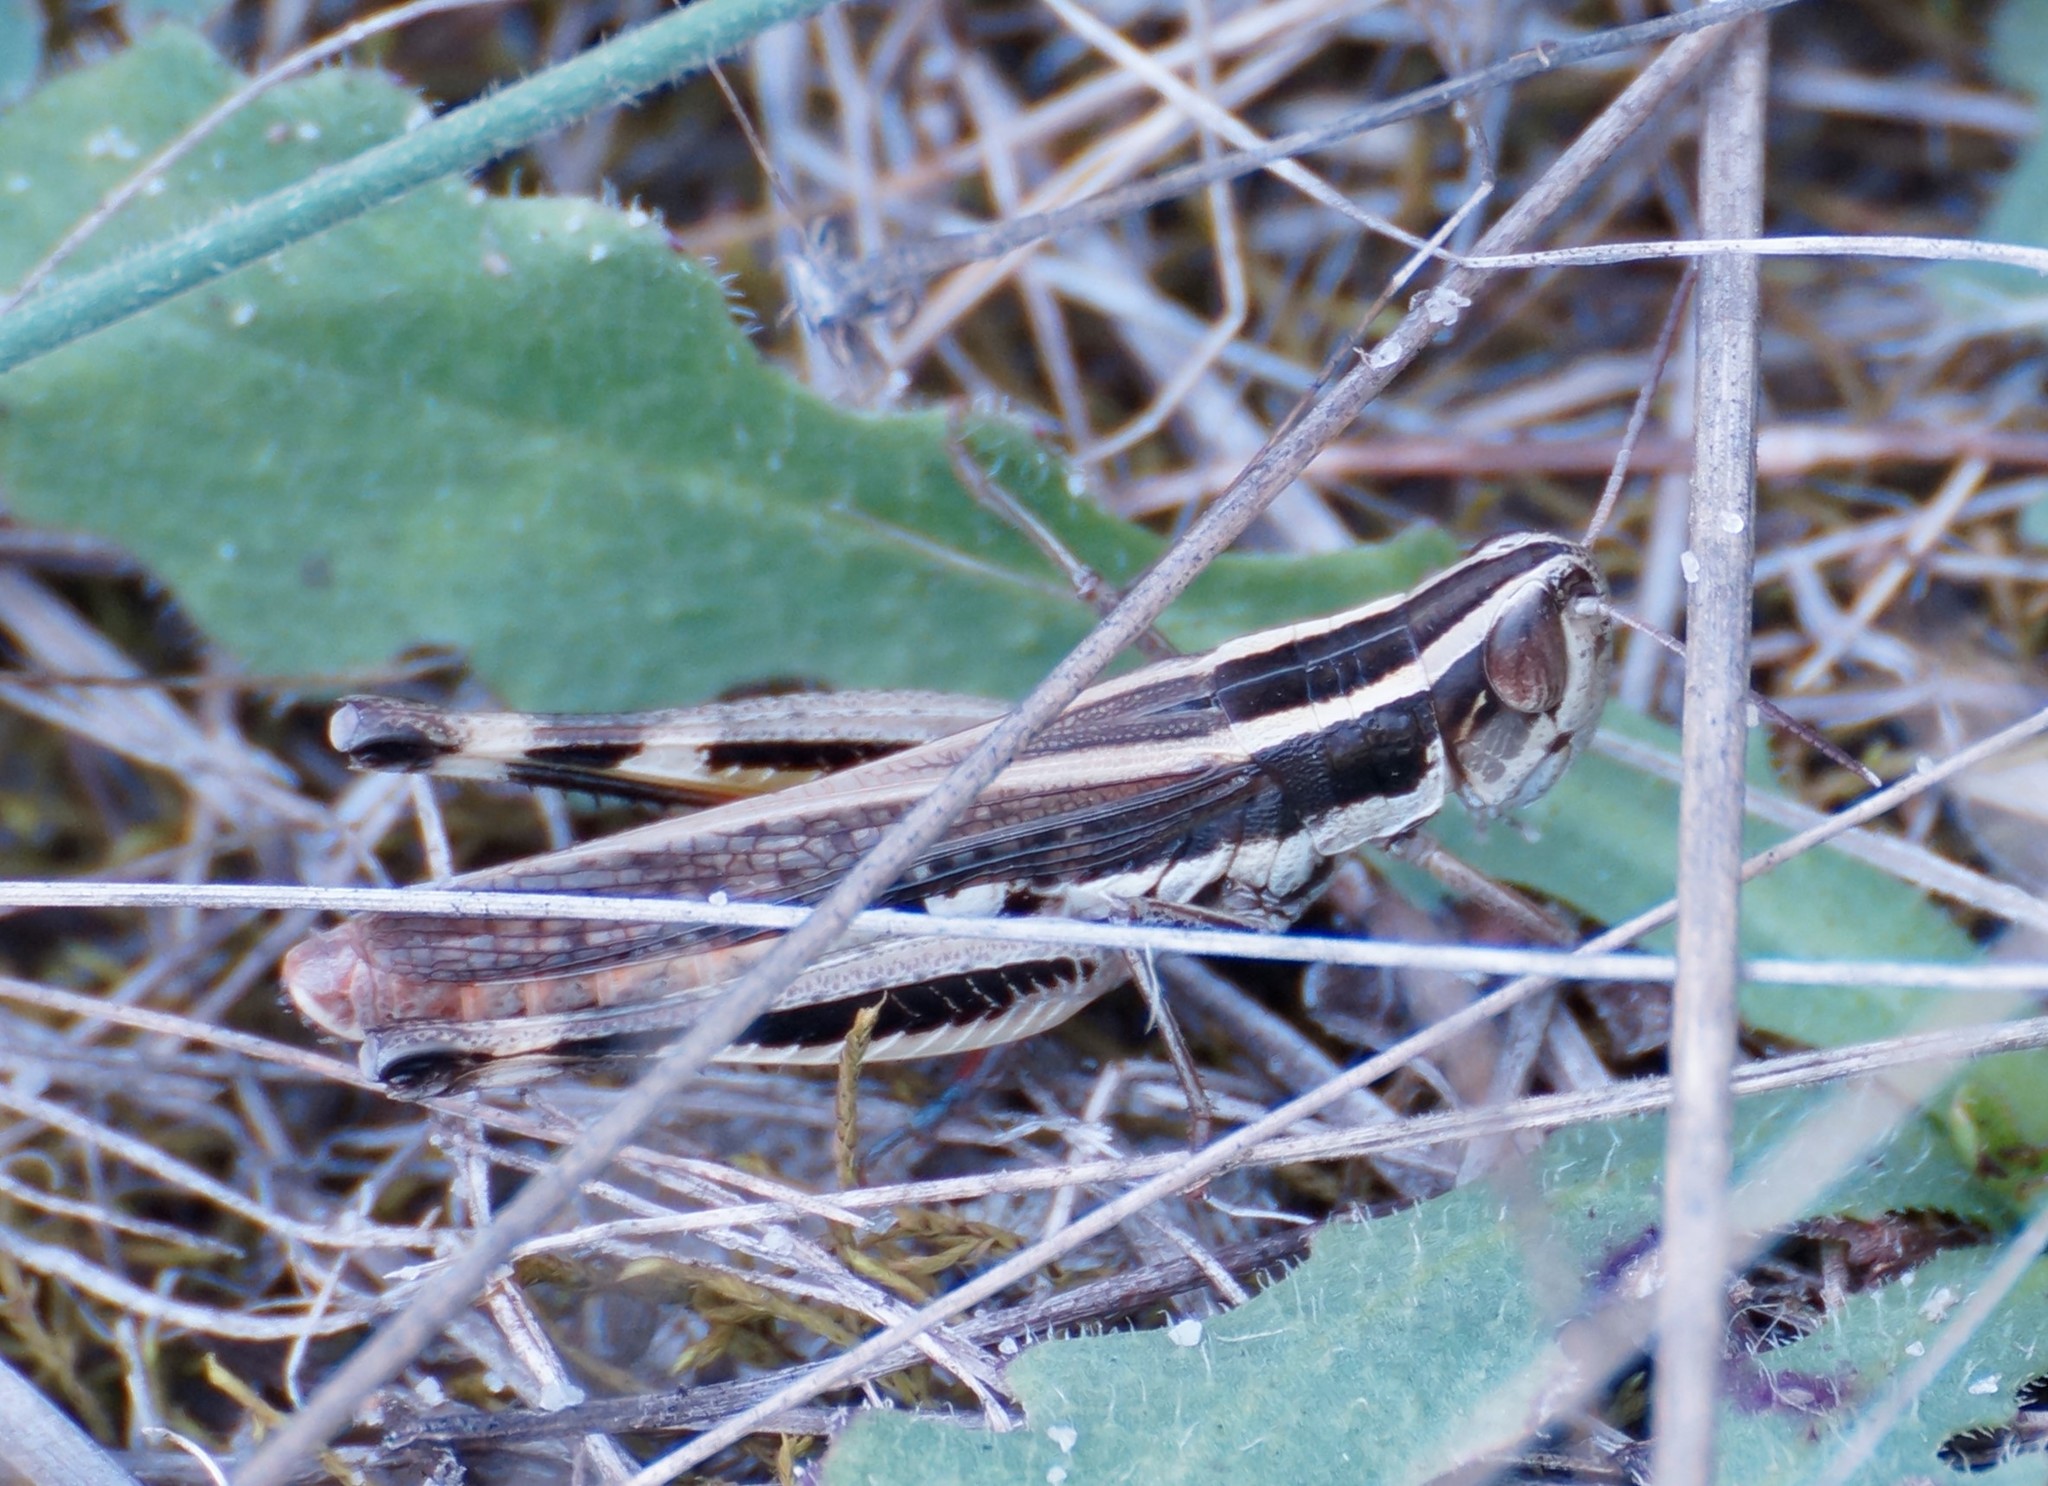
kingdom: Animalia
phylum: Arthropoda
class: Insecta
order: Orthoptera
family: Acrididae
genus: Macrotona
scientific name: Macrotona securiformis
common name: Inland macrotona
